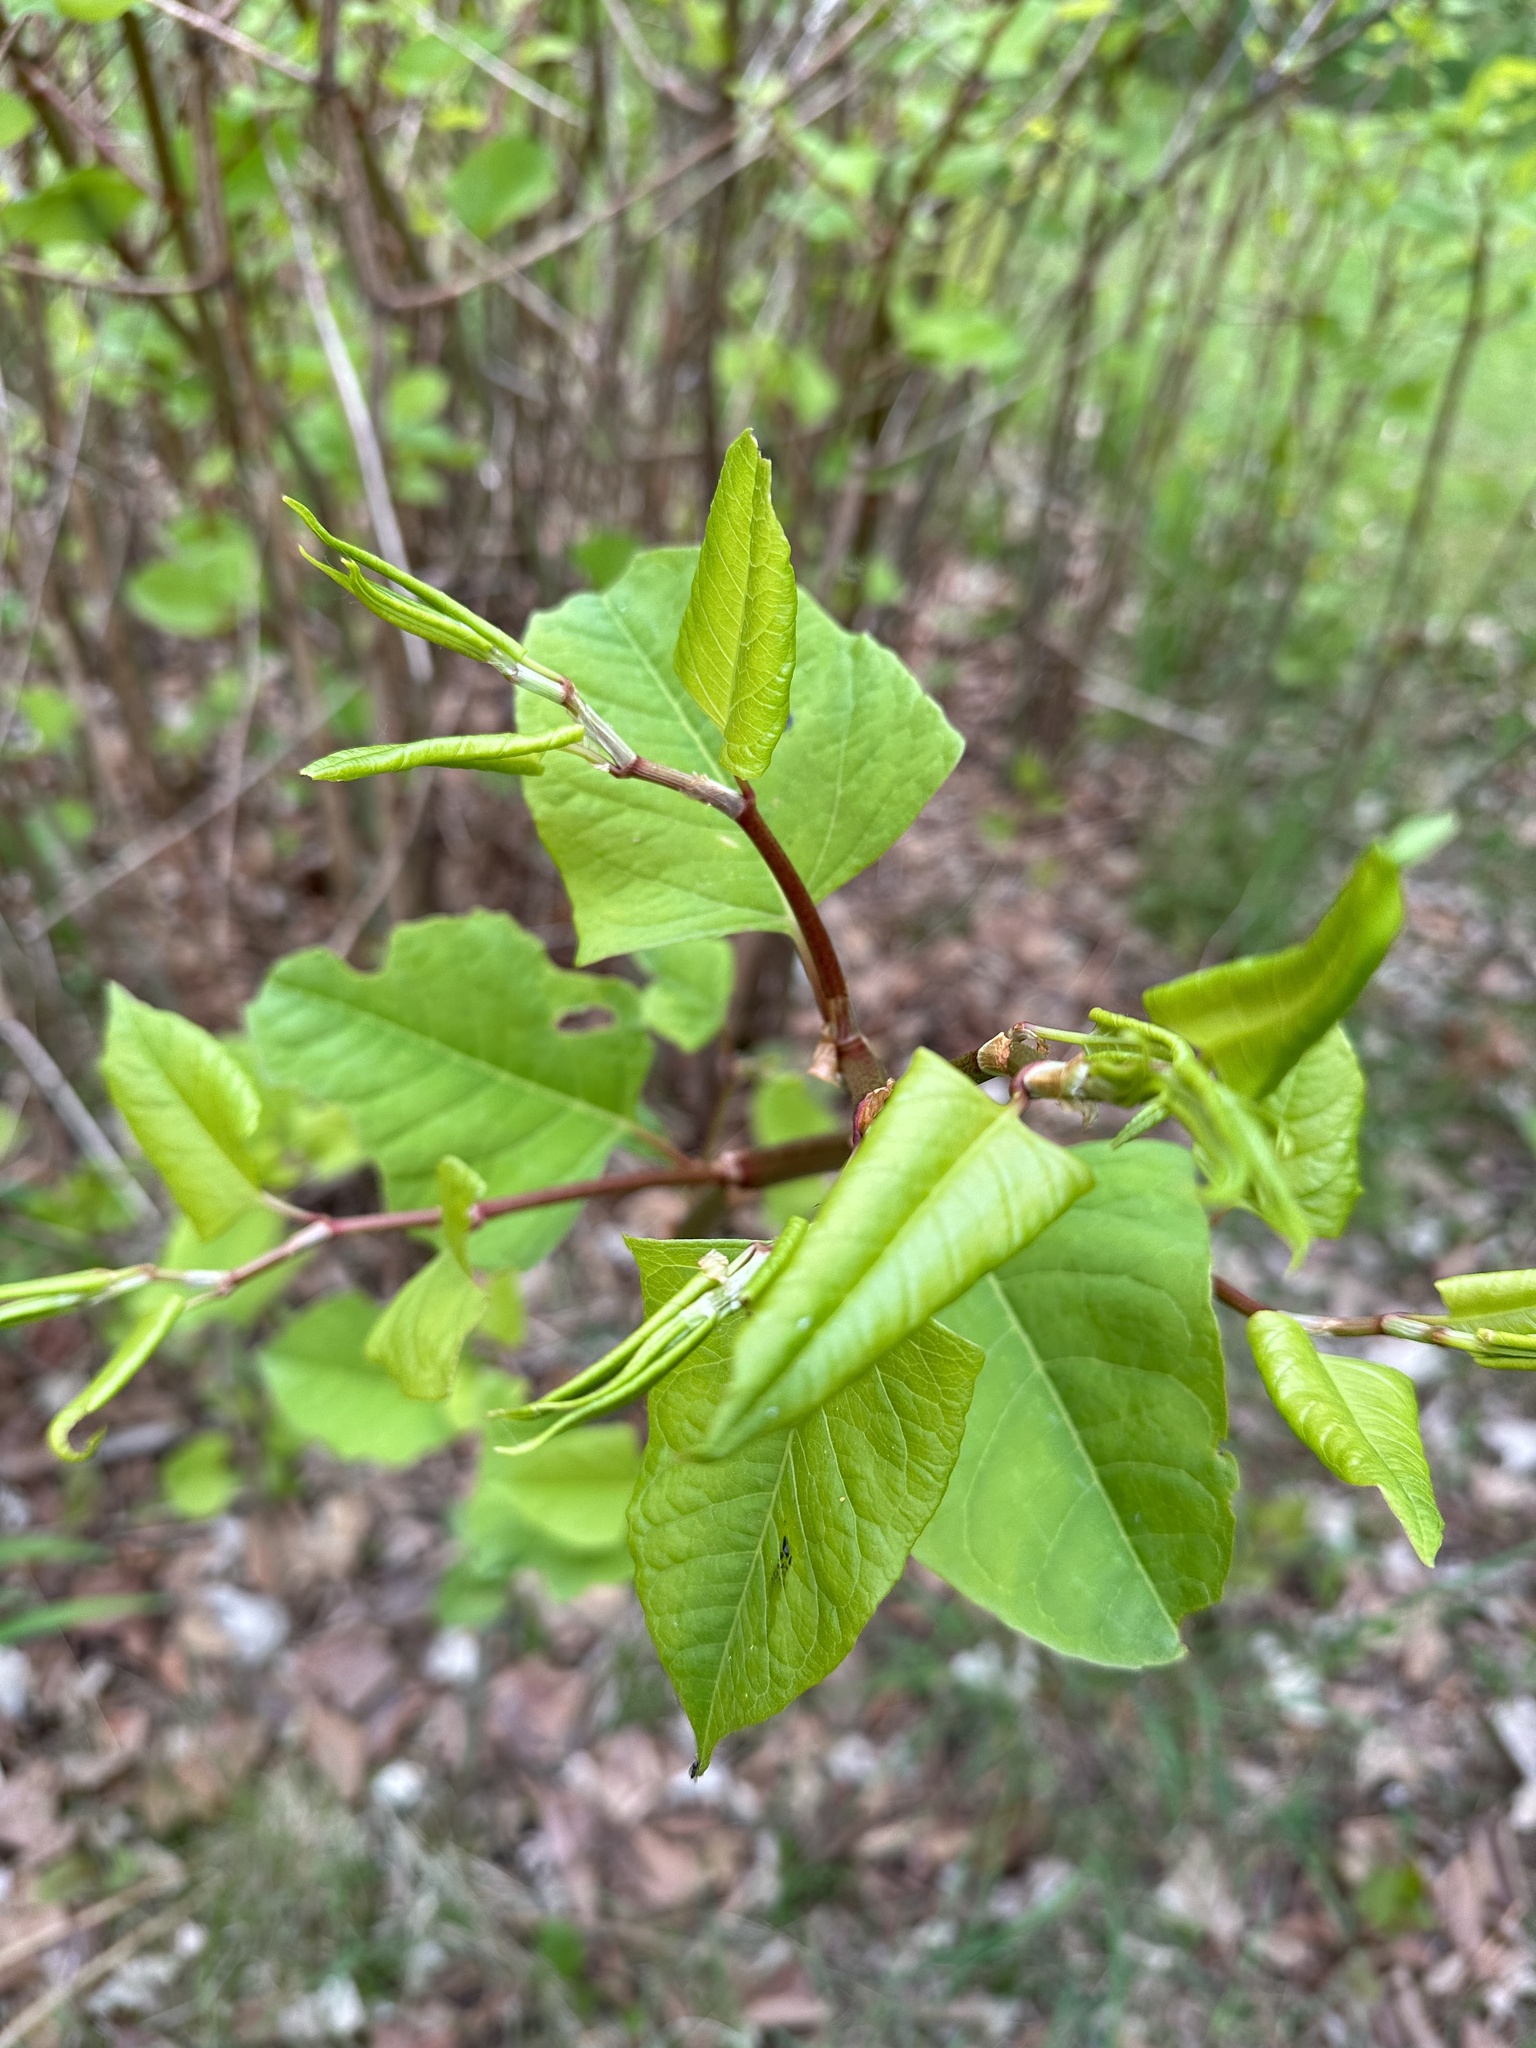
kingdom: Plantae
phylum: Tracheophyta
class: Magnoliopsida
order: Caryophyllales
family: Polygonaceae
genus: Reynoutria
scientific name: Reynoutria japonica
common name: Japanese knotweed
